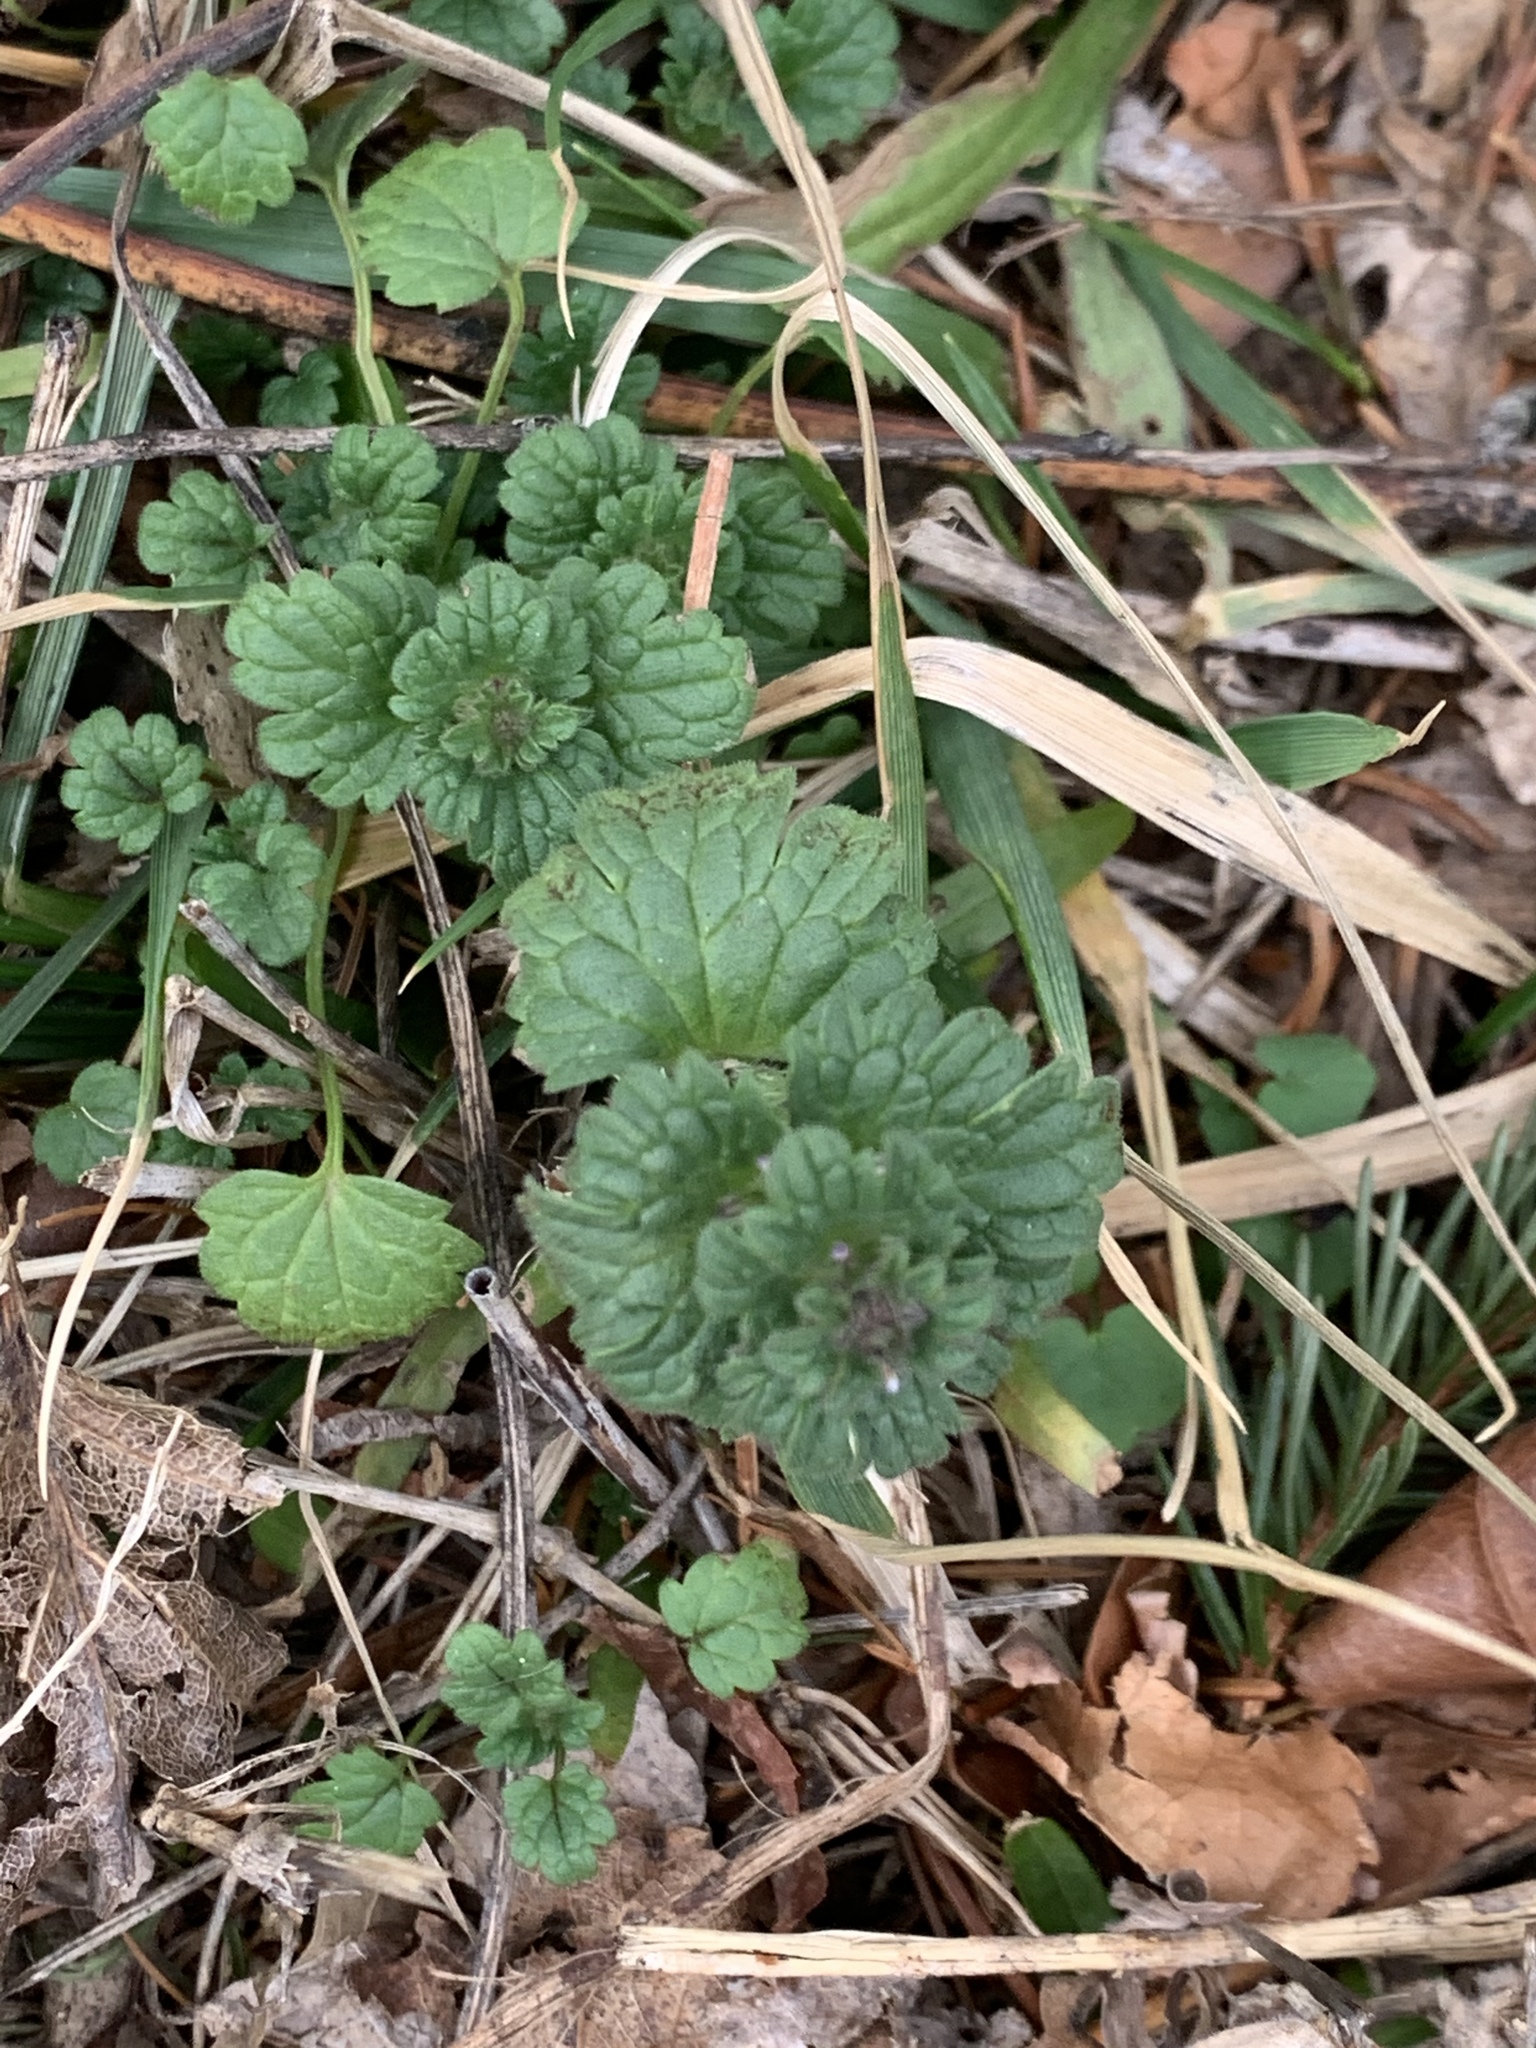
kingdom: Plantae
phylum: Tracheophyta
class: Magnoliopsida
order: Lamiales
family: Lamiaceae
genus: Lamium
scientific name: Lamium amplexicaule
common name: Henbit dead-nettle
